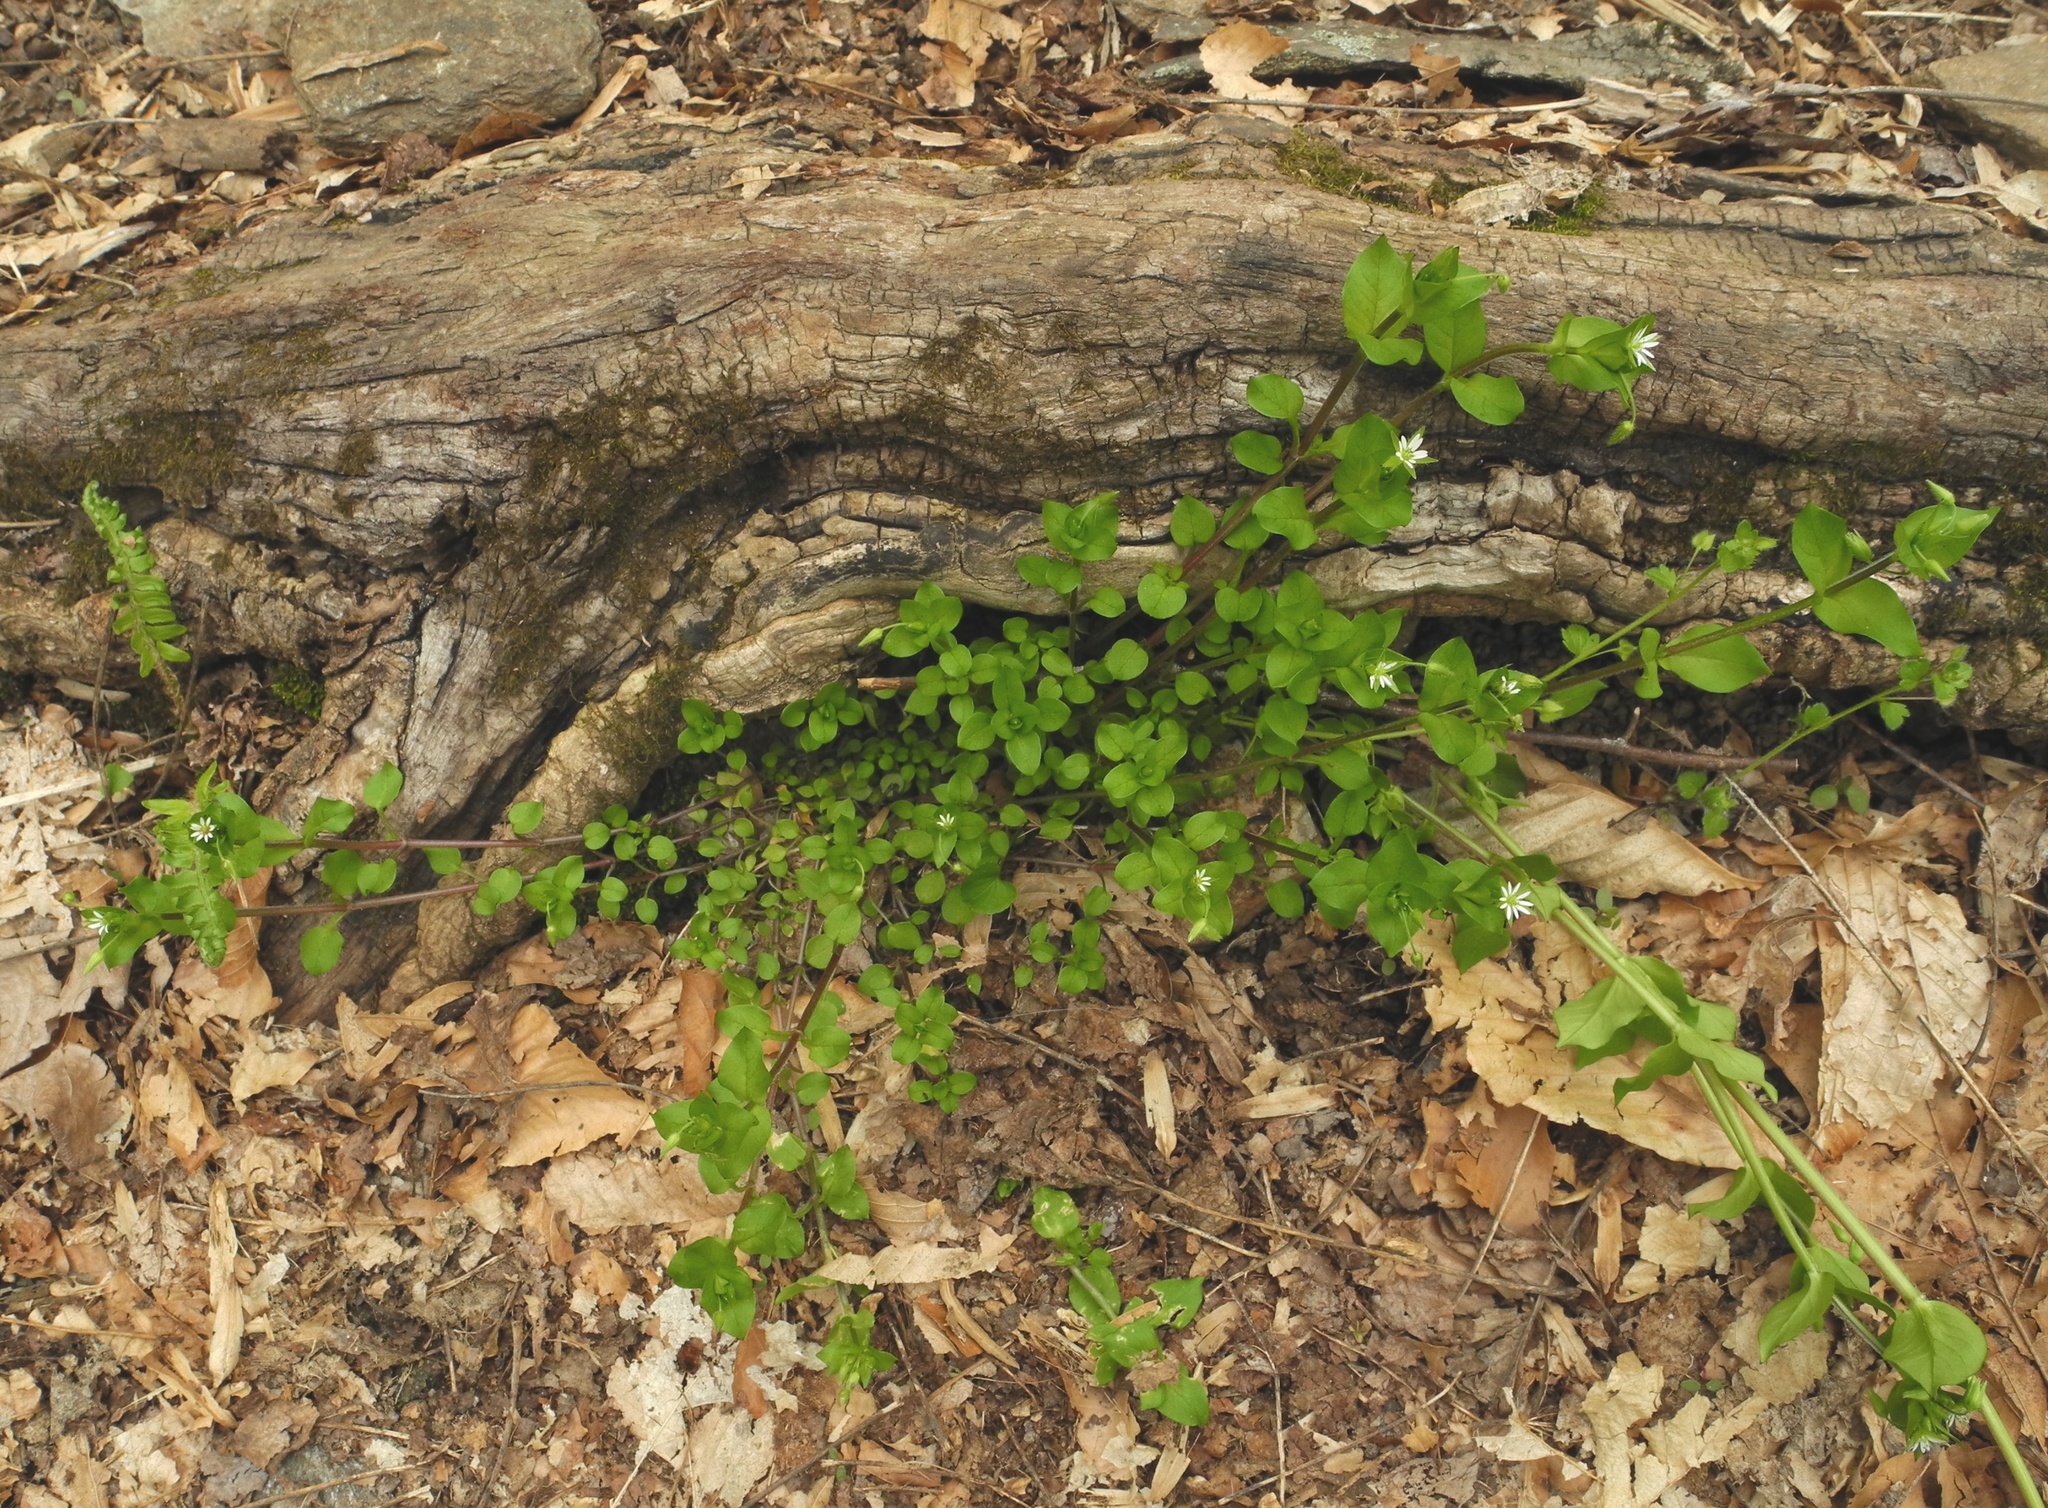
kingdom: Plantae
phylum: Tracheophyta
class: Magnoliopsida
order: Caryophyllales
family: Caryophyllaceae
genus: Stellaria
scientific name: Stellaria media
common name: Common chickweed
